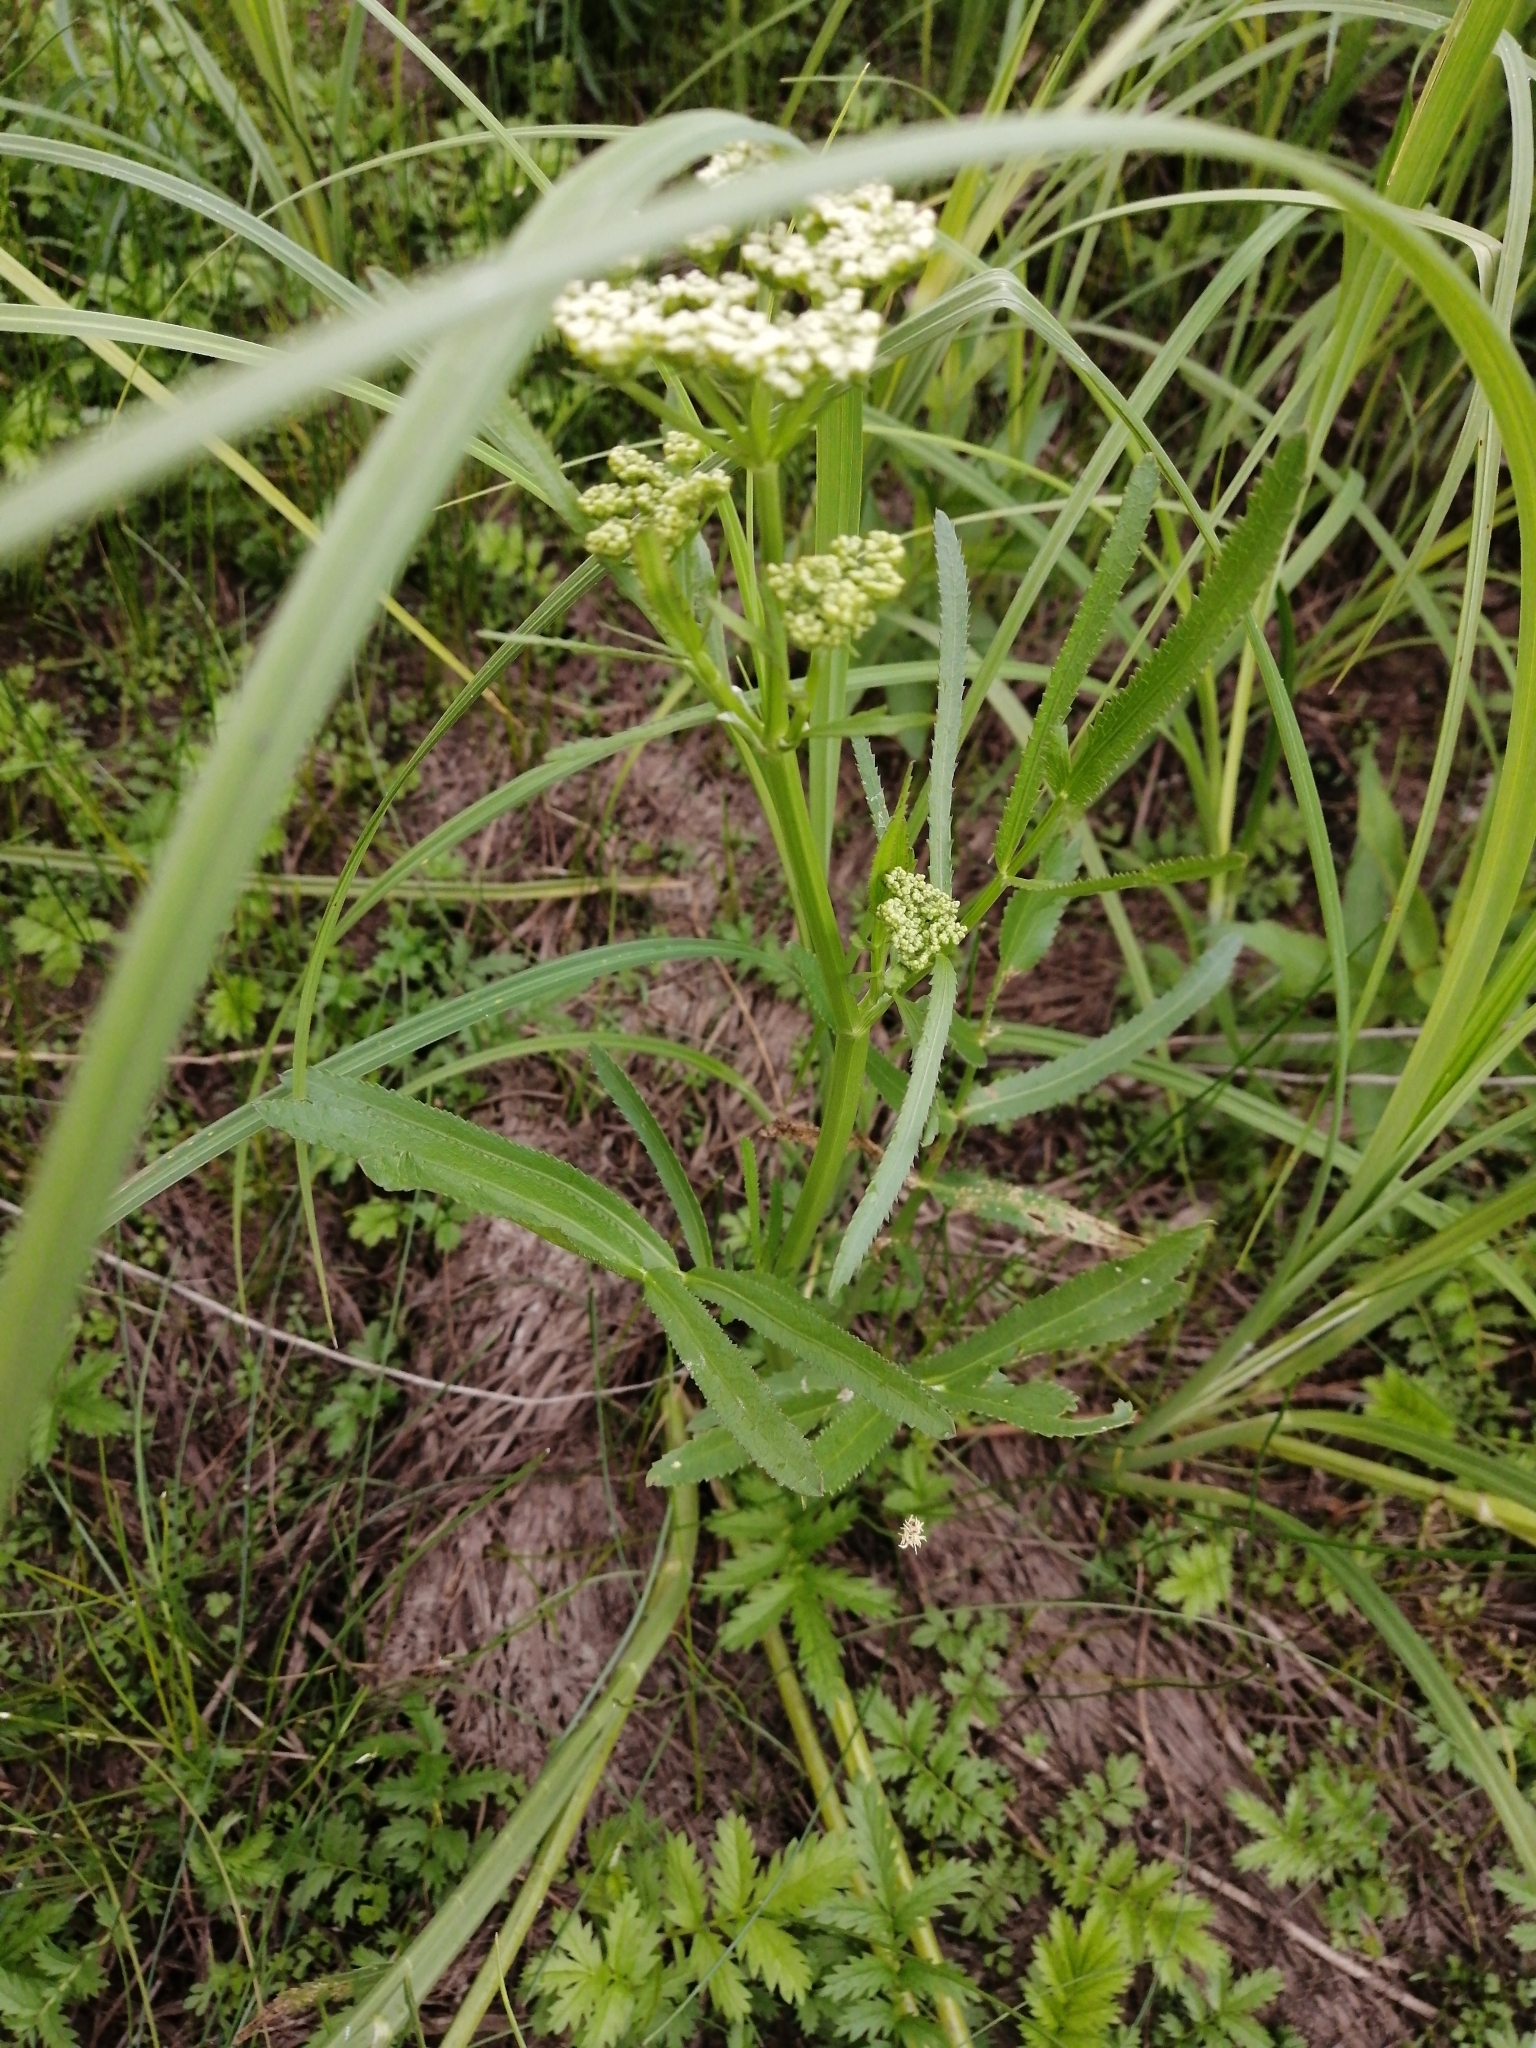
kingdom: Plantae
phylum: Tracheophyta
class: Magnoliopsida
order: Apiales
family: Apiaceae
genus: Sium
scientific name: Sium latifolium
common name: Greater water-parsnip
